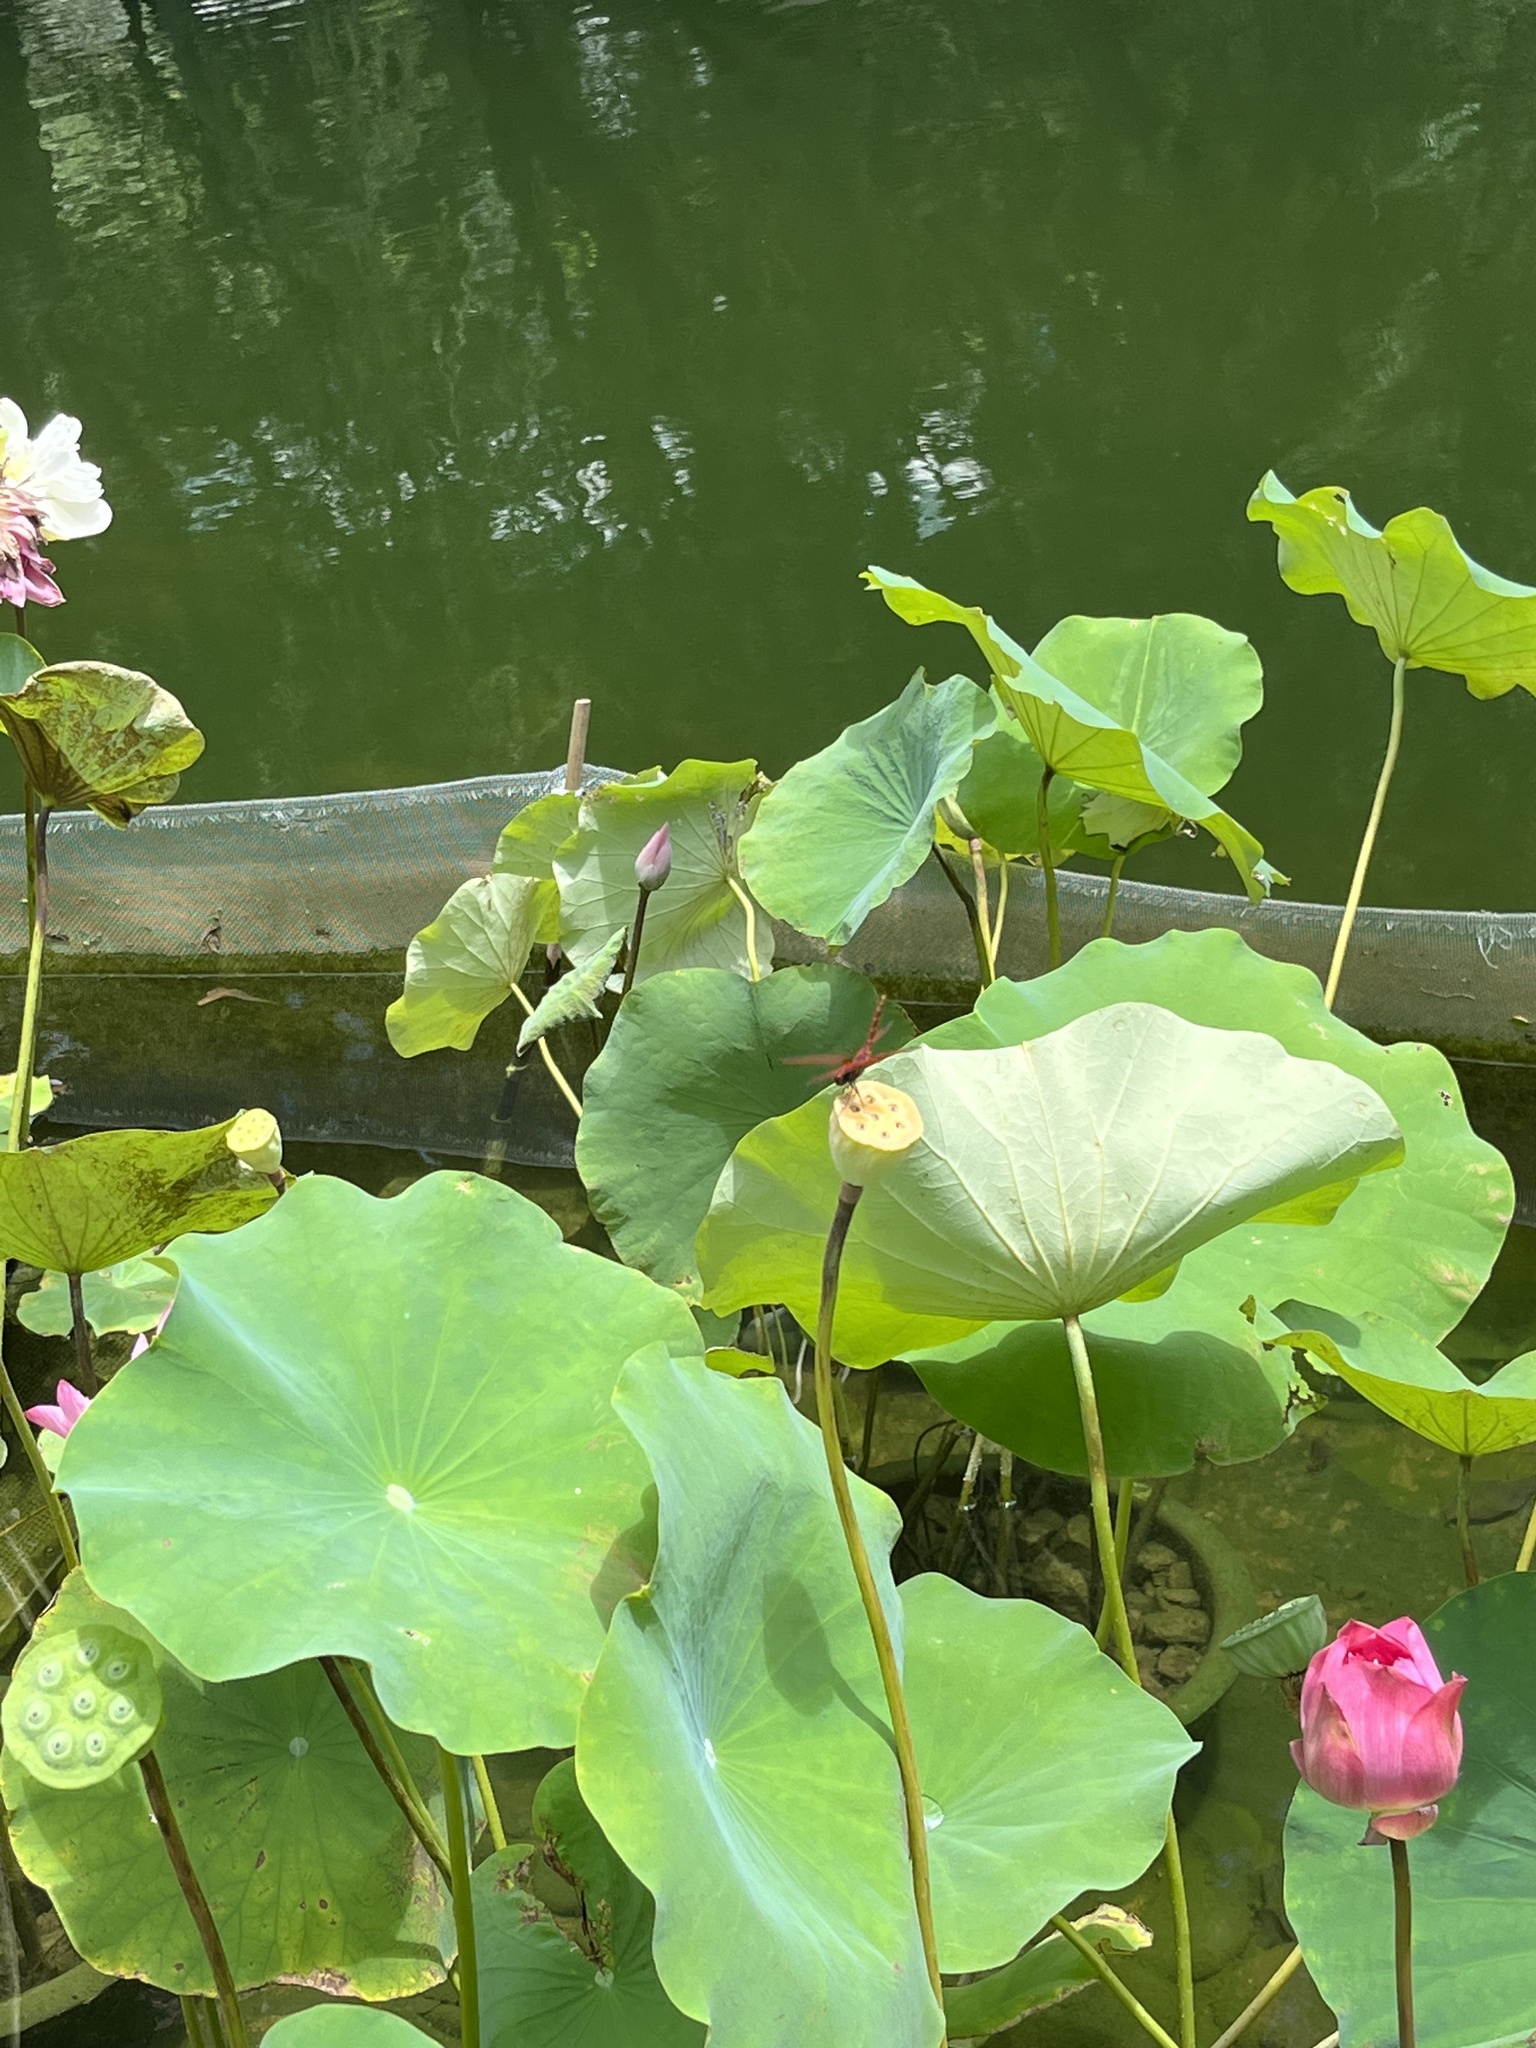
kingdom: Animalia
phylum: Arthropoda
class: Insecta
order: Odonata
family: Libellulidae
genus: Trithemis
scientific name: Trithemis aurora
